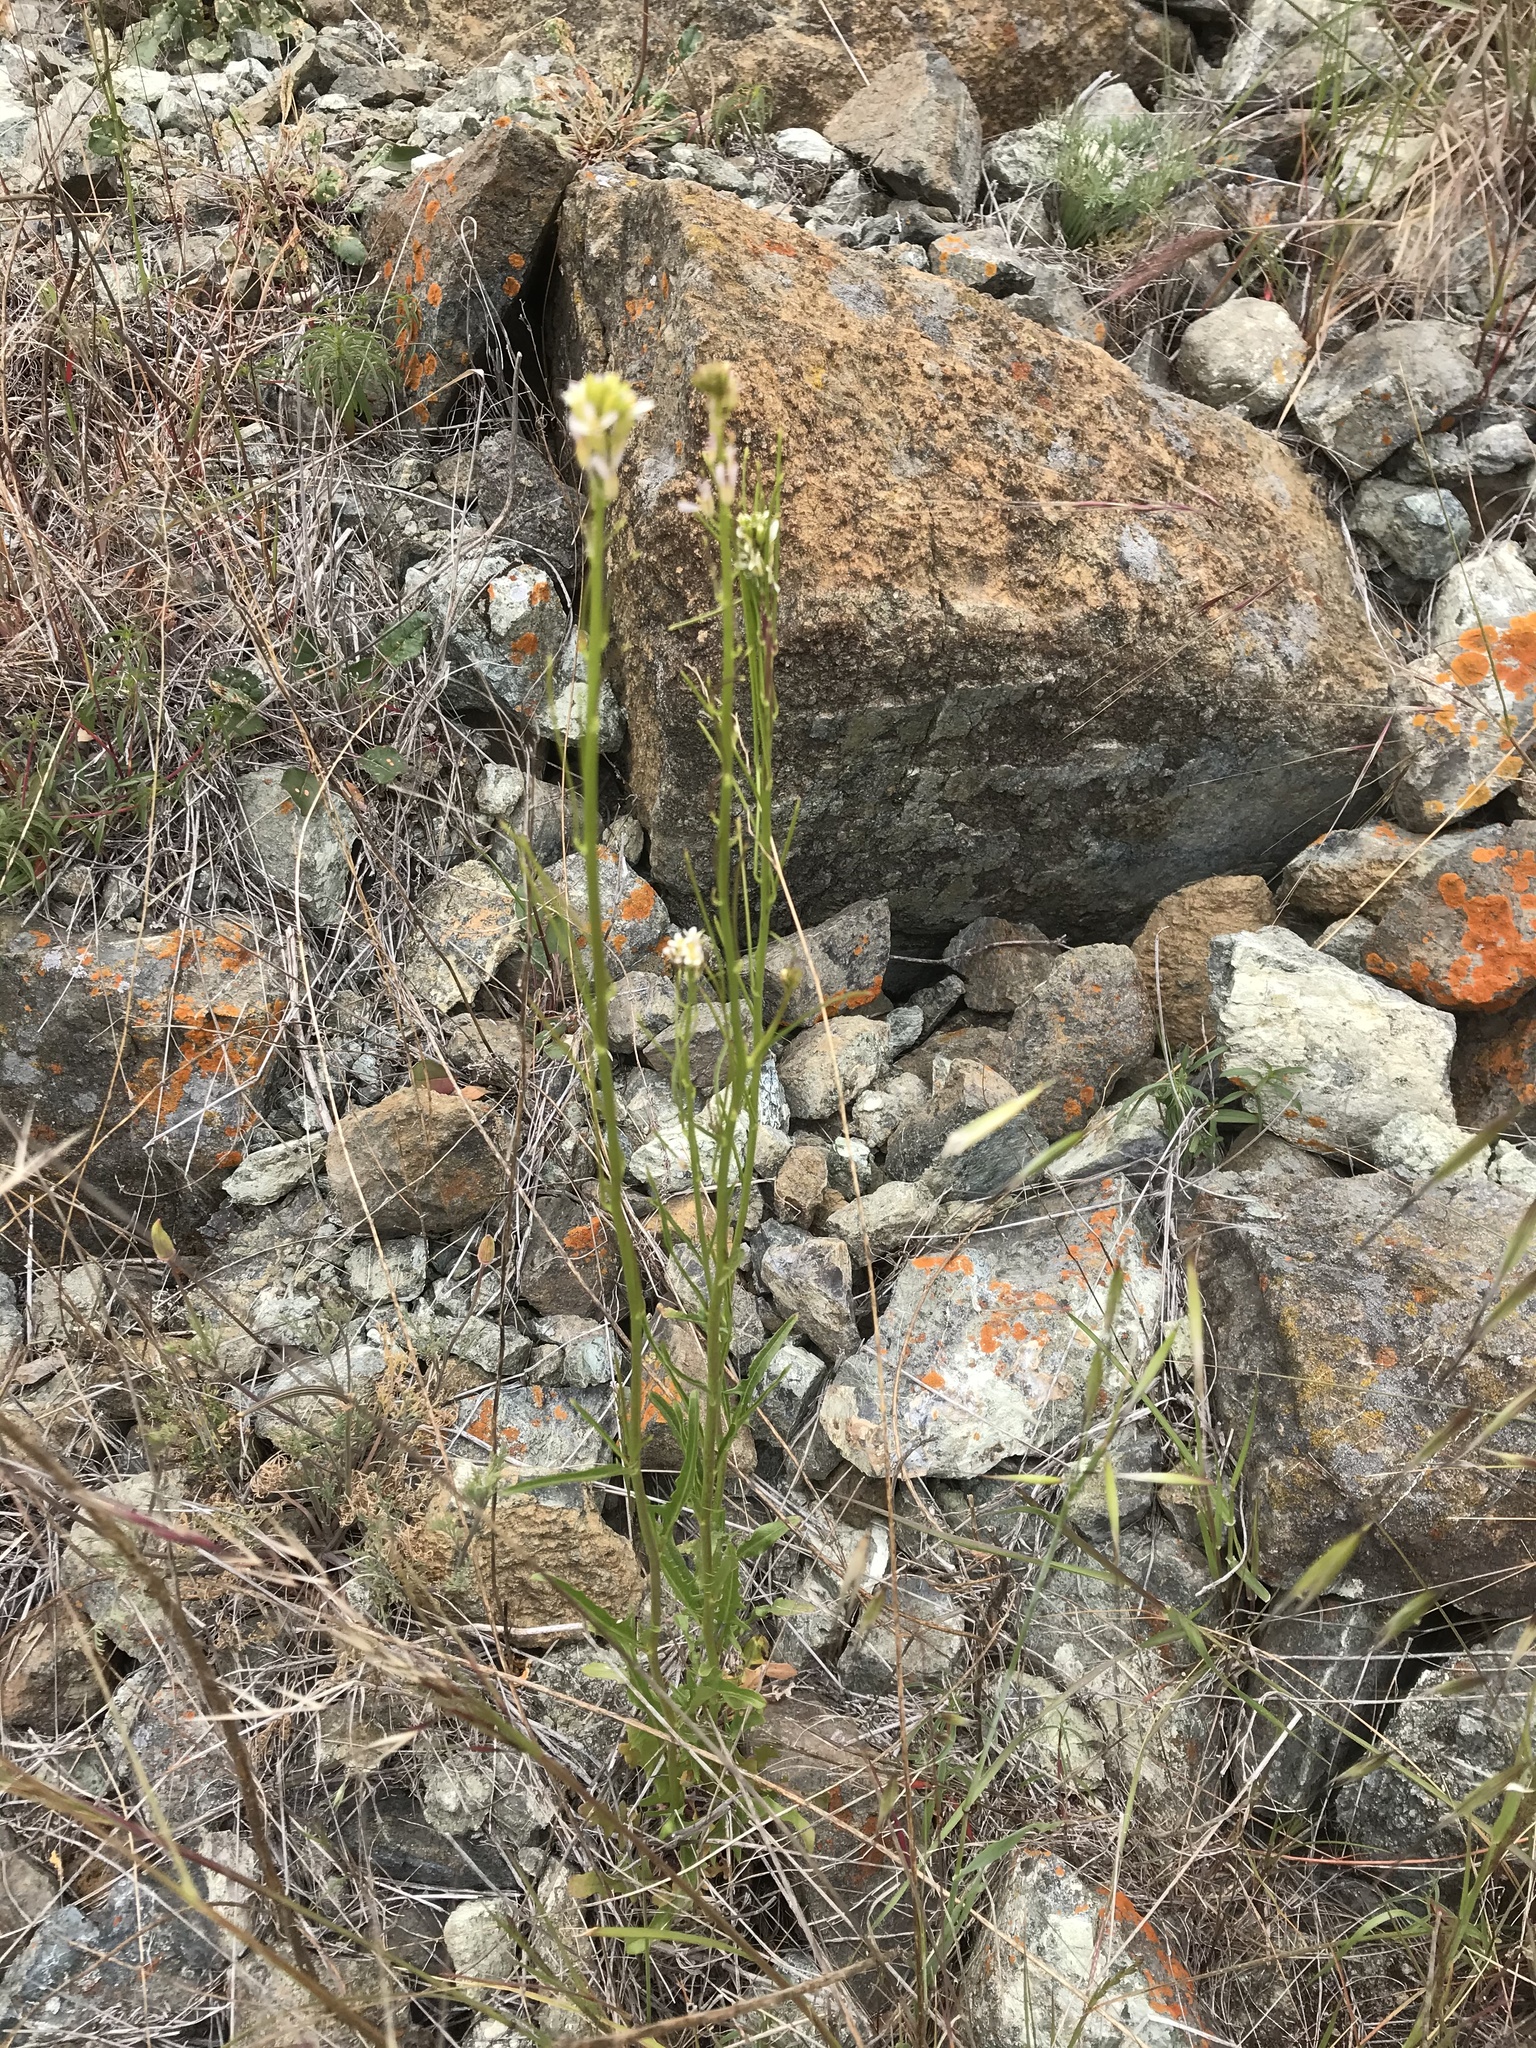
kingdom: Plantae
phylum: Tracheophyta
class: Magnoliopsida
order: Brassicales
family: Brassicaceae
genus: Turritis
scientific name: Turritis glabra
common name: Tower rockcress
